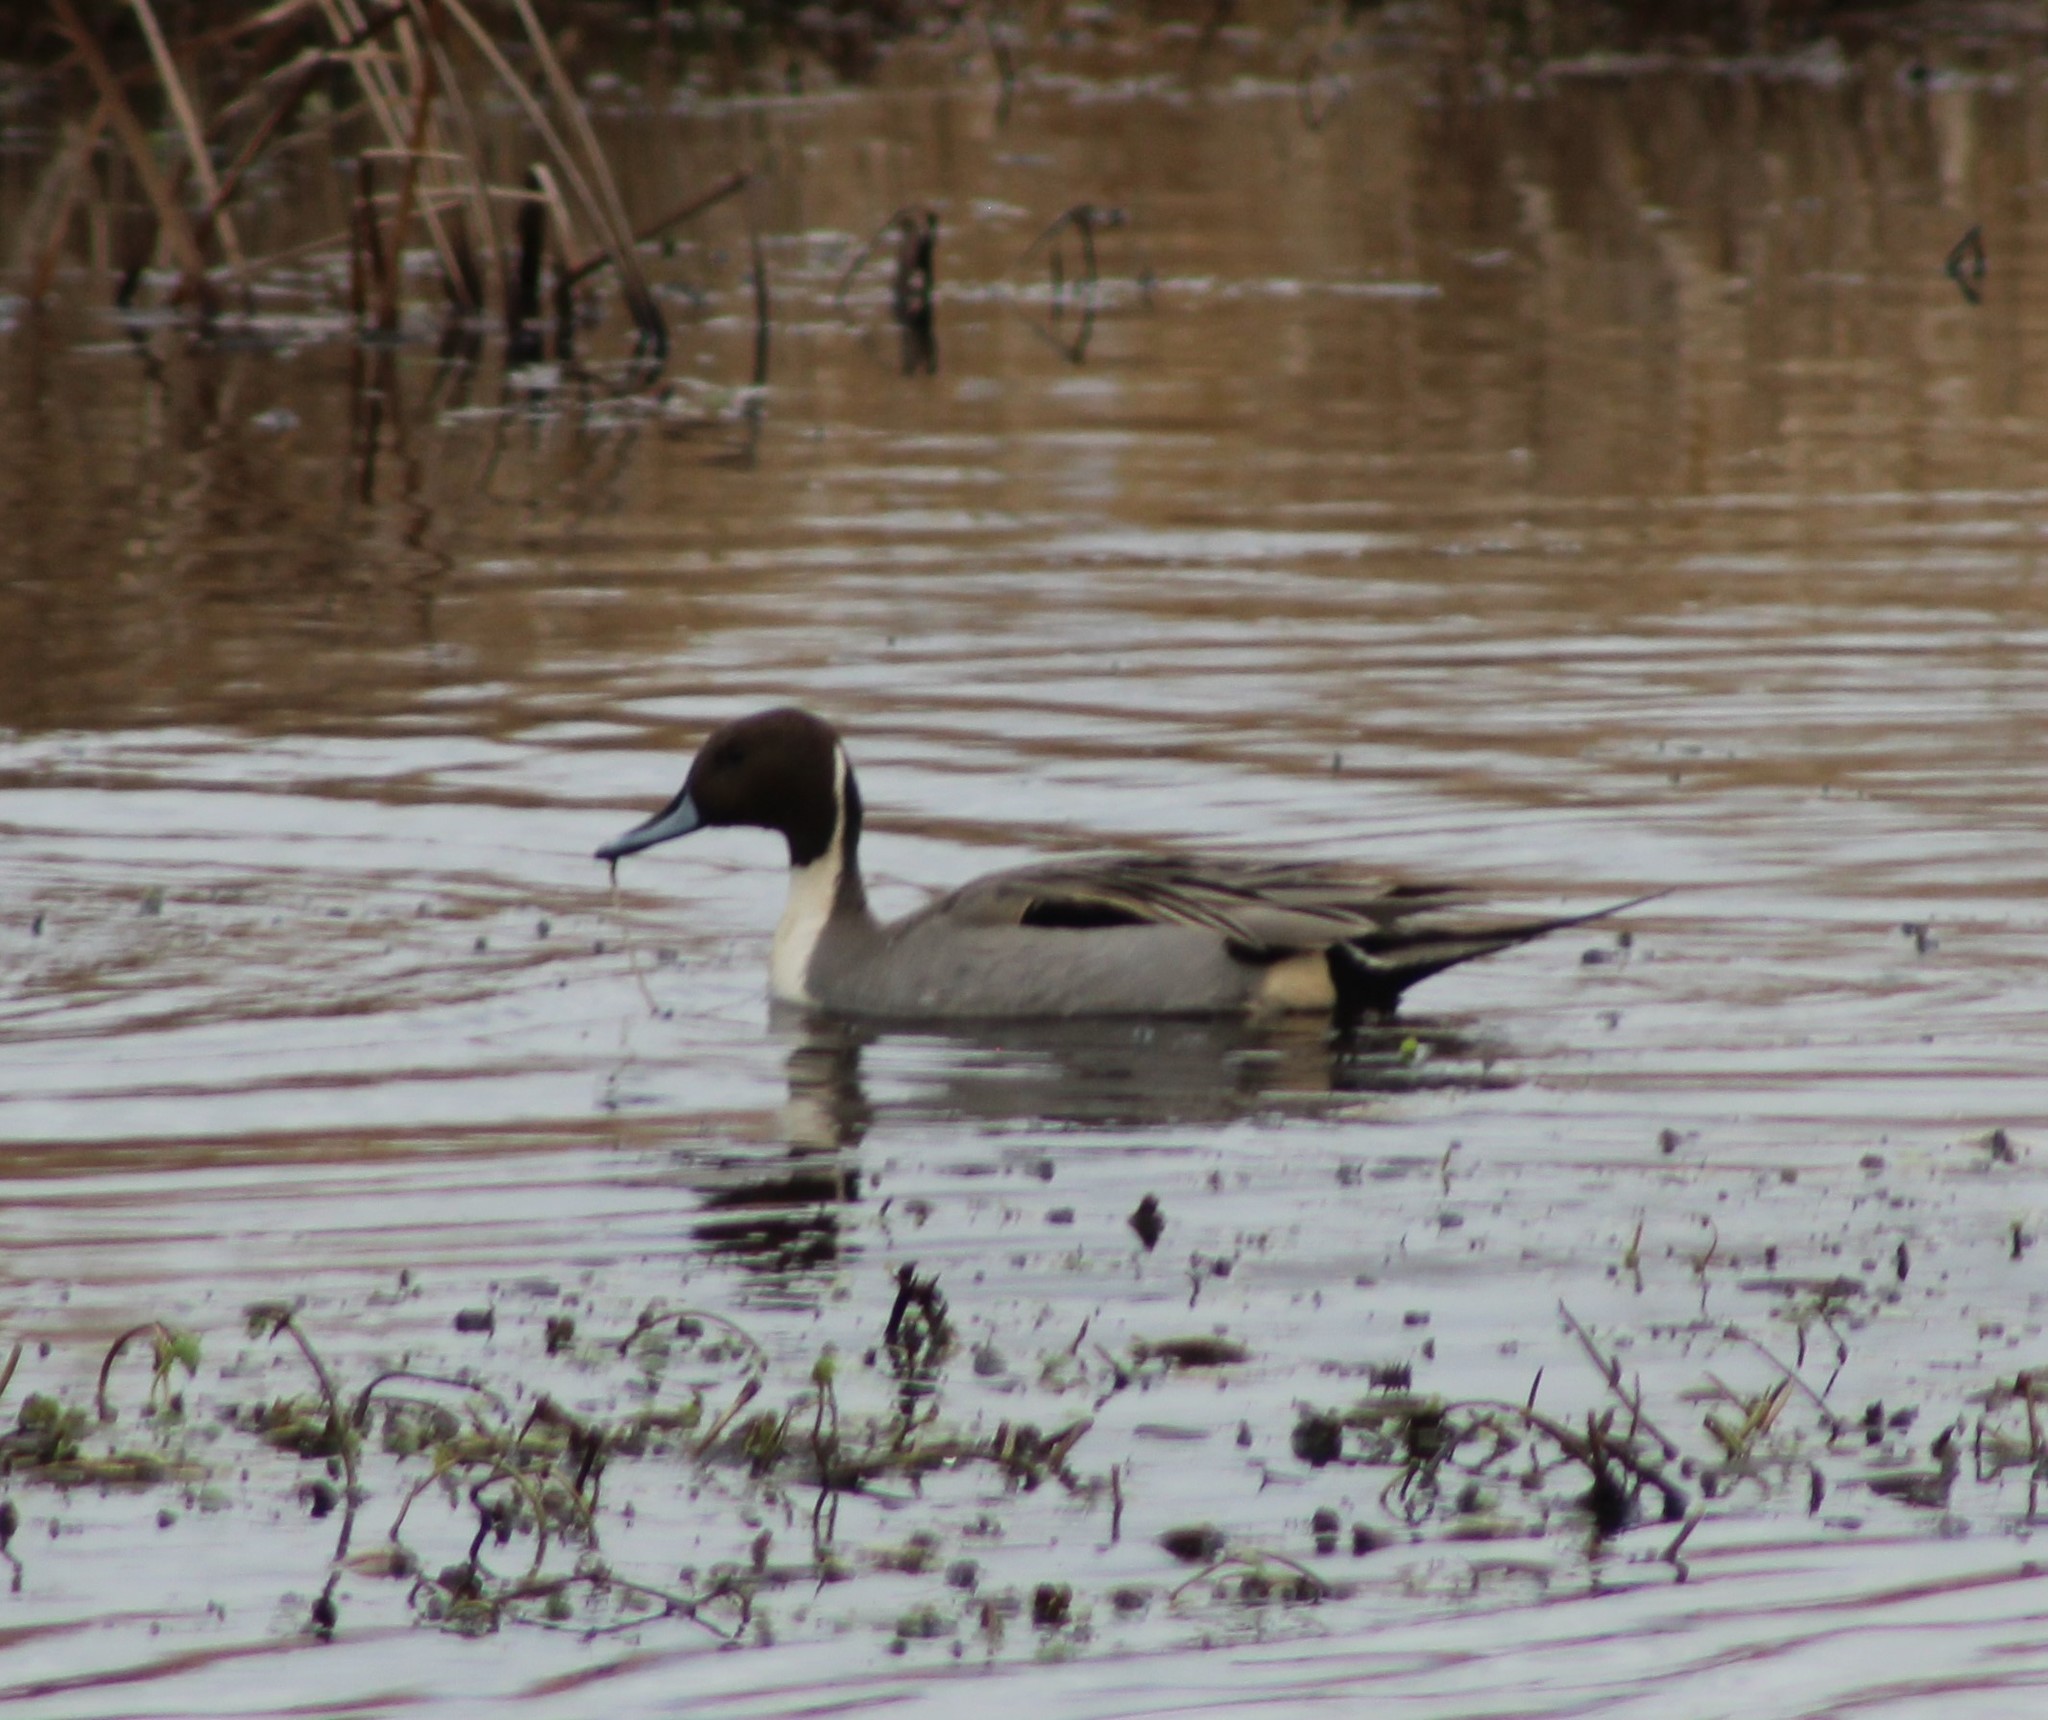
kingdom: Animalia
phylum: Chordata
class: Aves
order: Anseriformes
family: Anatidae
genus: Anas
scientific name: Anas acuta
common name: Northern pintail
